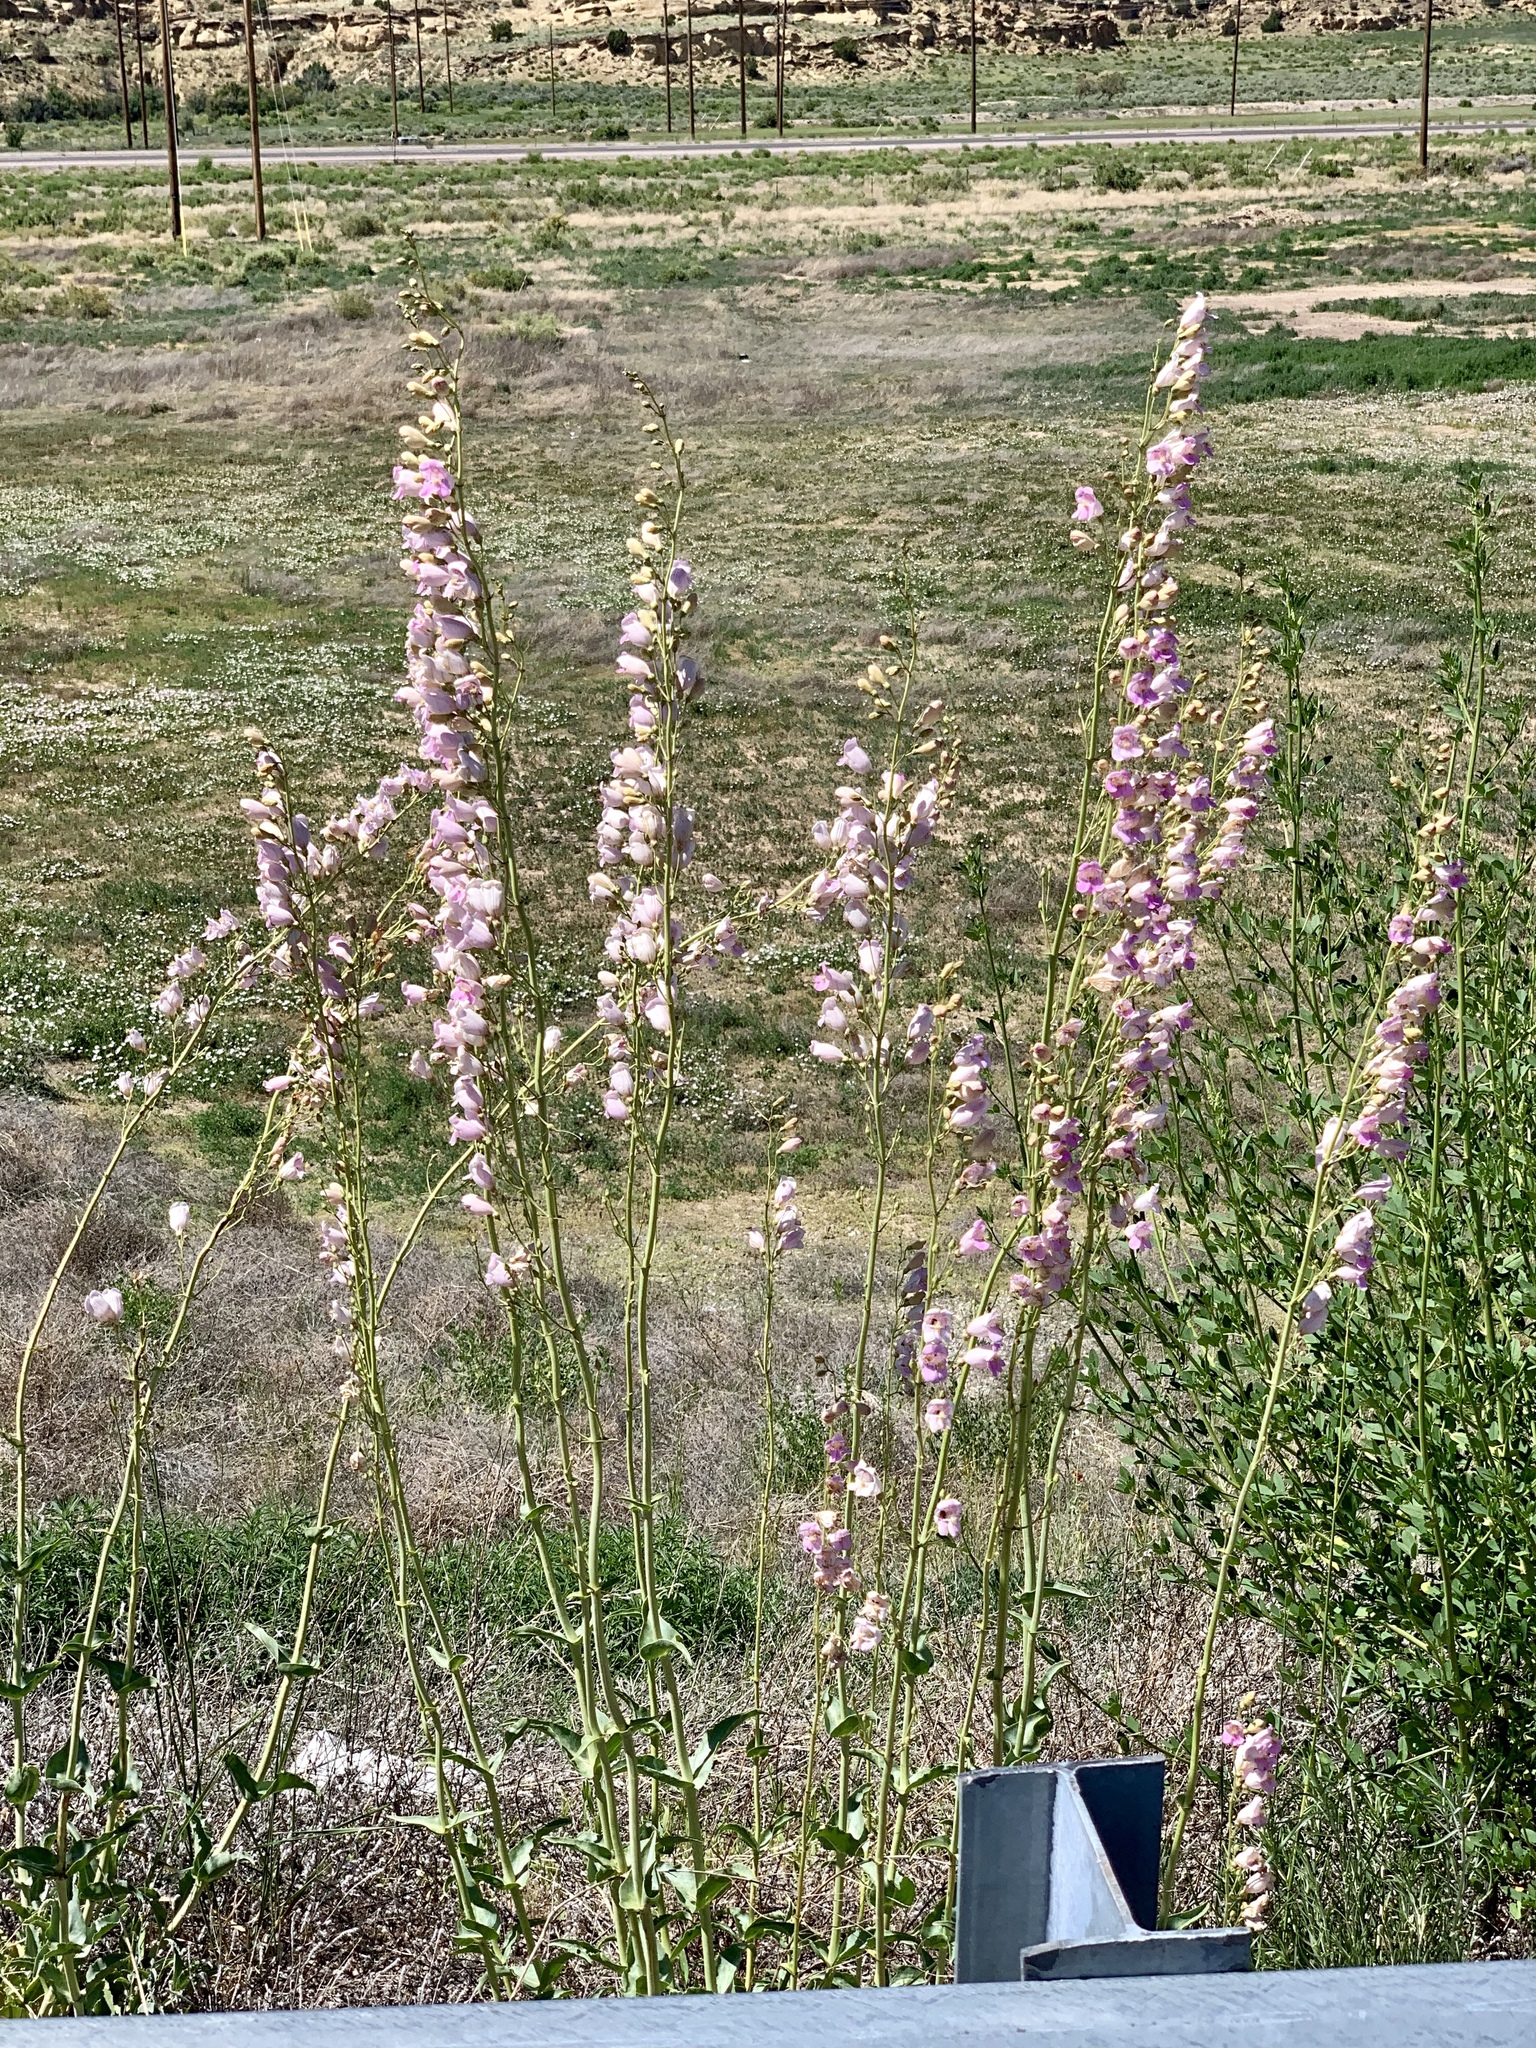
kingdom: Plantae
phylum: Tracheophyta
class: Magnoliopsida
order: Lamiales
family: Plantaginaceae
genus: Penstemon
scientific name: Penstemon palmeri
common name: Palmer penstemon
